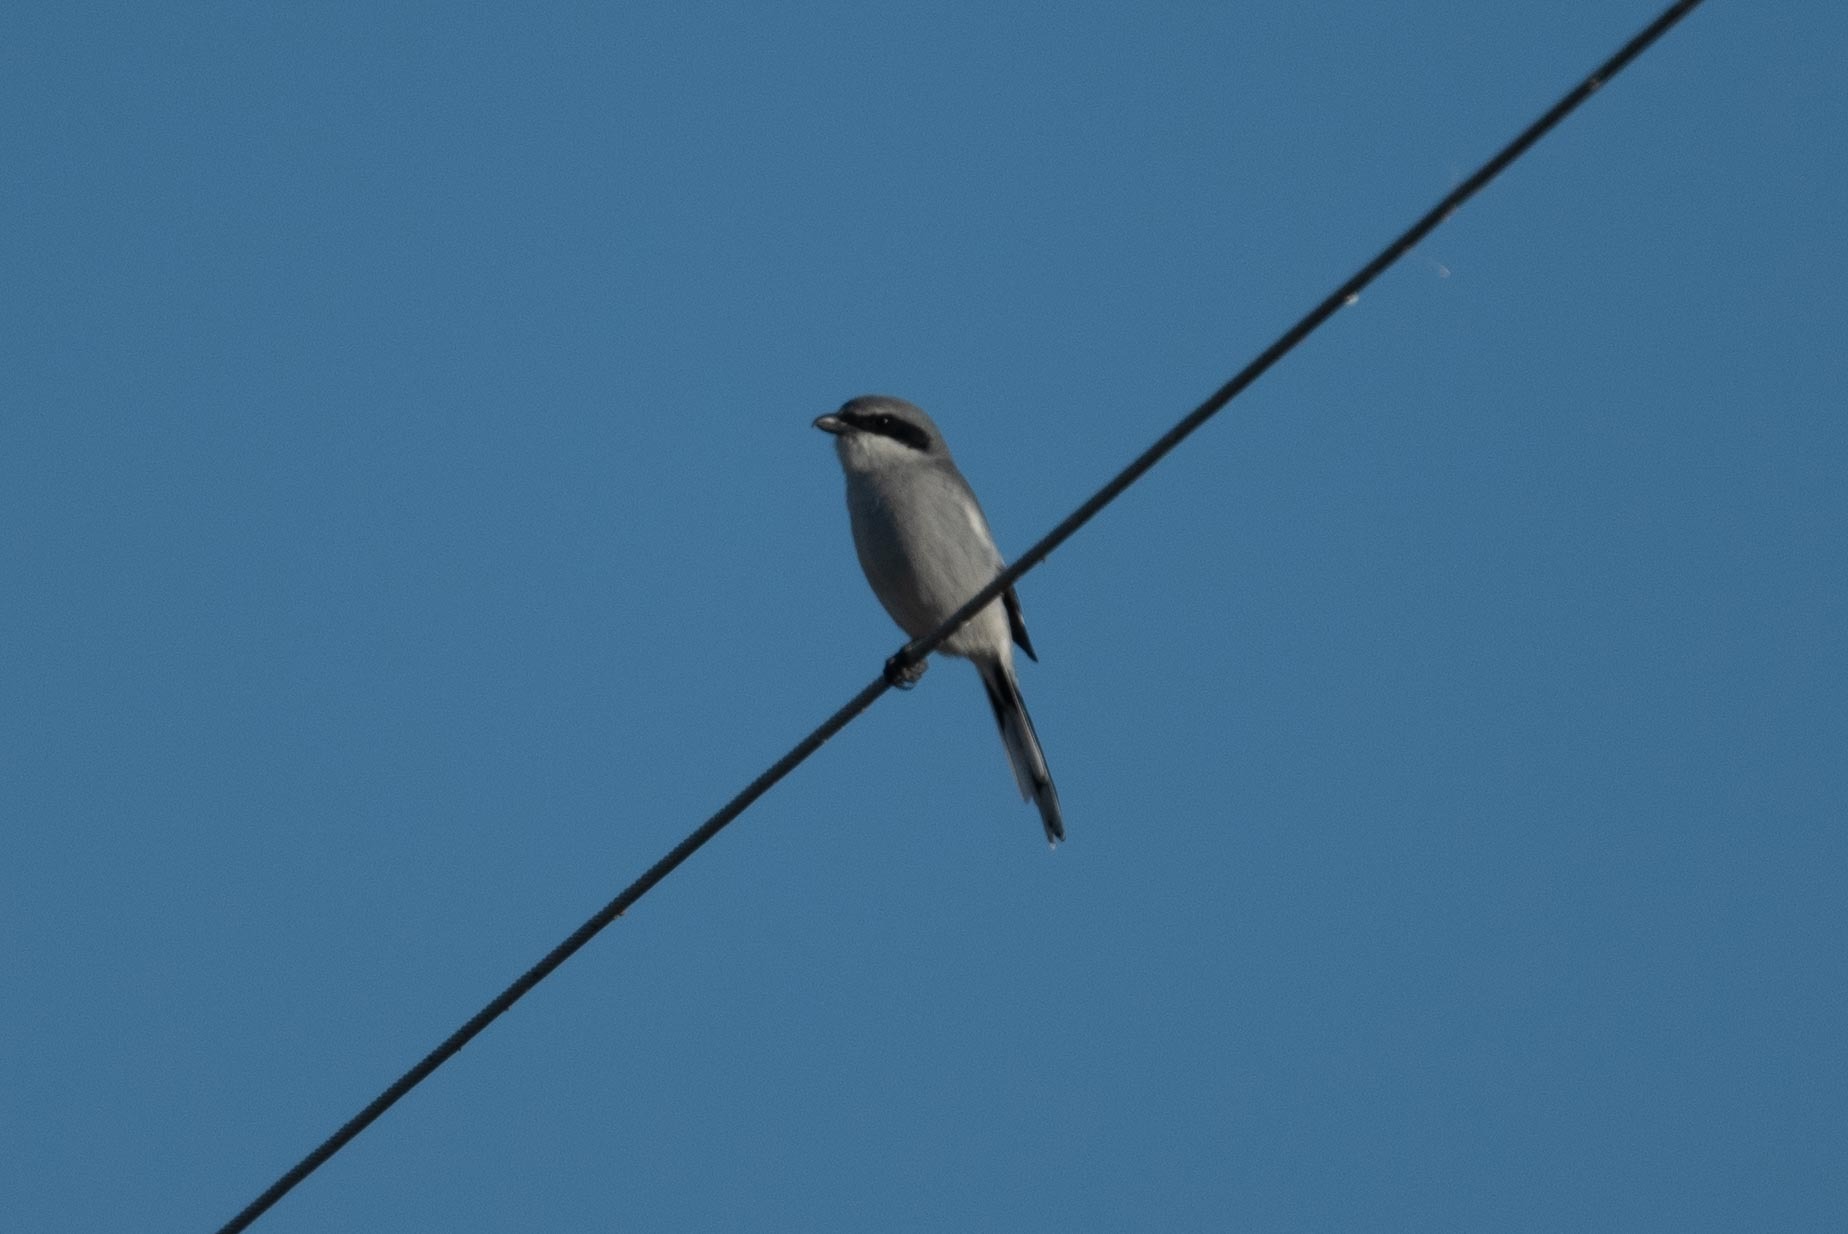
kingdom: Animalia
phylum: Chordata
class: Aves
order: Passeriformes
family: Laniidae
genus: Lanius
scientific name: Lanius ludovicianus
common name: Loggerhead shrike
